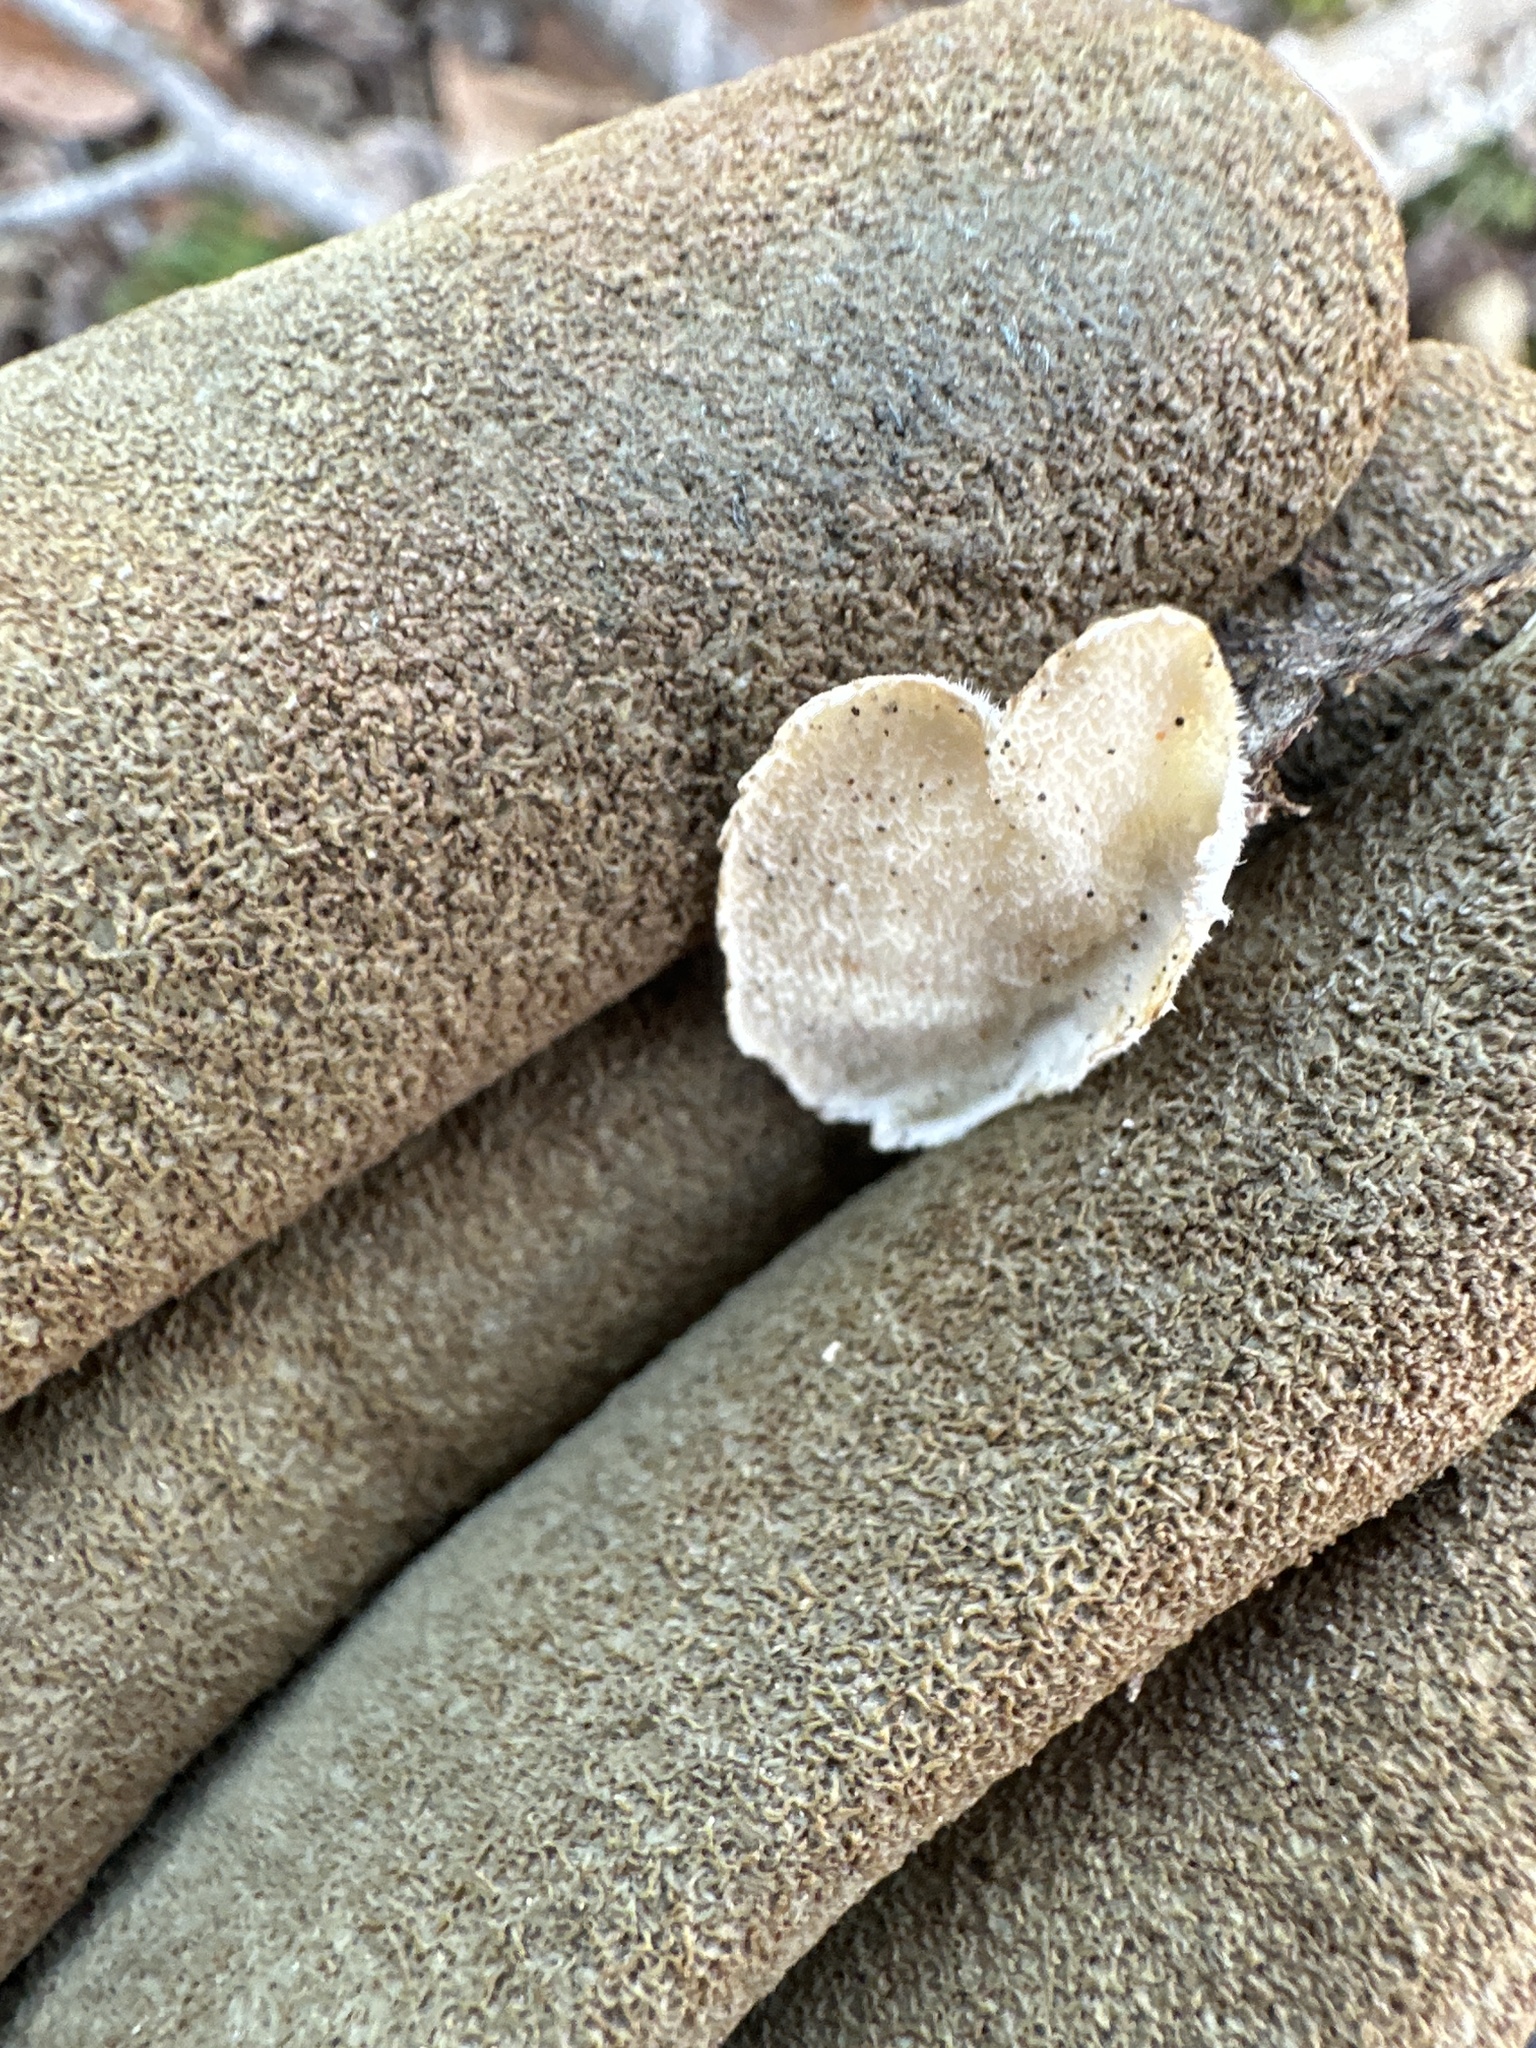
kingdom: Fungi
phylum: Basidiomycota
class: Agaricomycetes
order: Polyporales
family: Polyporaceae
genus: Trametes
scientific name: Trametes versicolor
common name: Turkeytail
